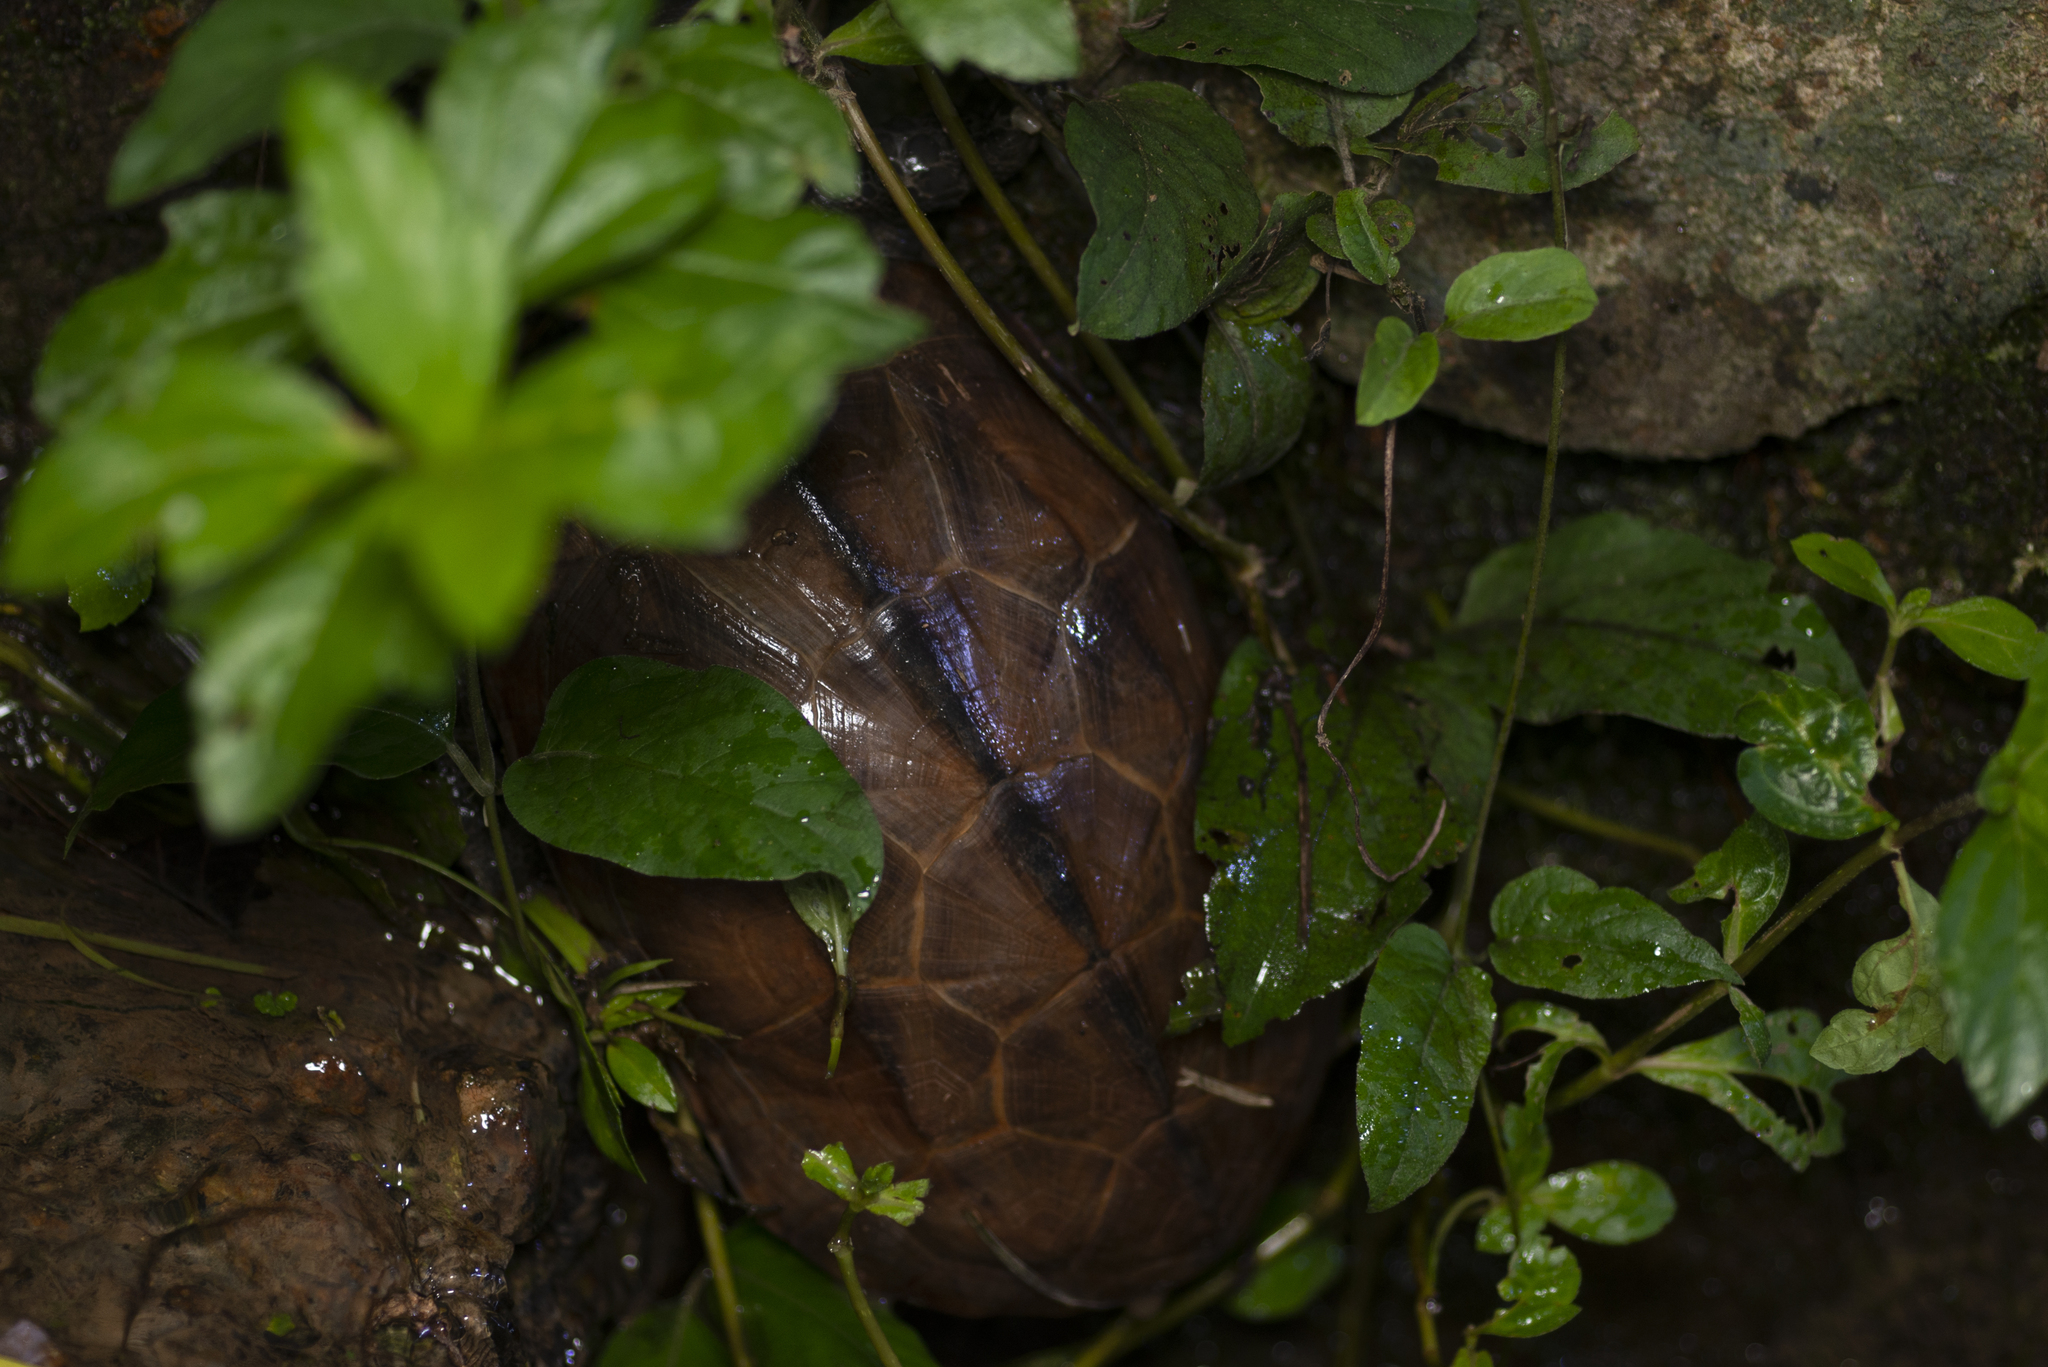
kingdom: Animalia
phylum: Chordata
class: Testudines
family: Geoemydidae
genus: Mauremys
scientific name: Mauremys reevesii
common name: Chinese pond turtle
